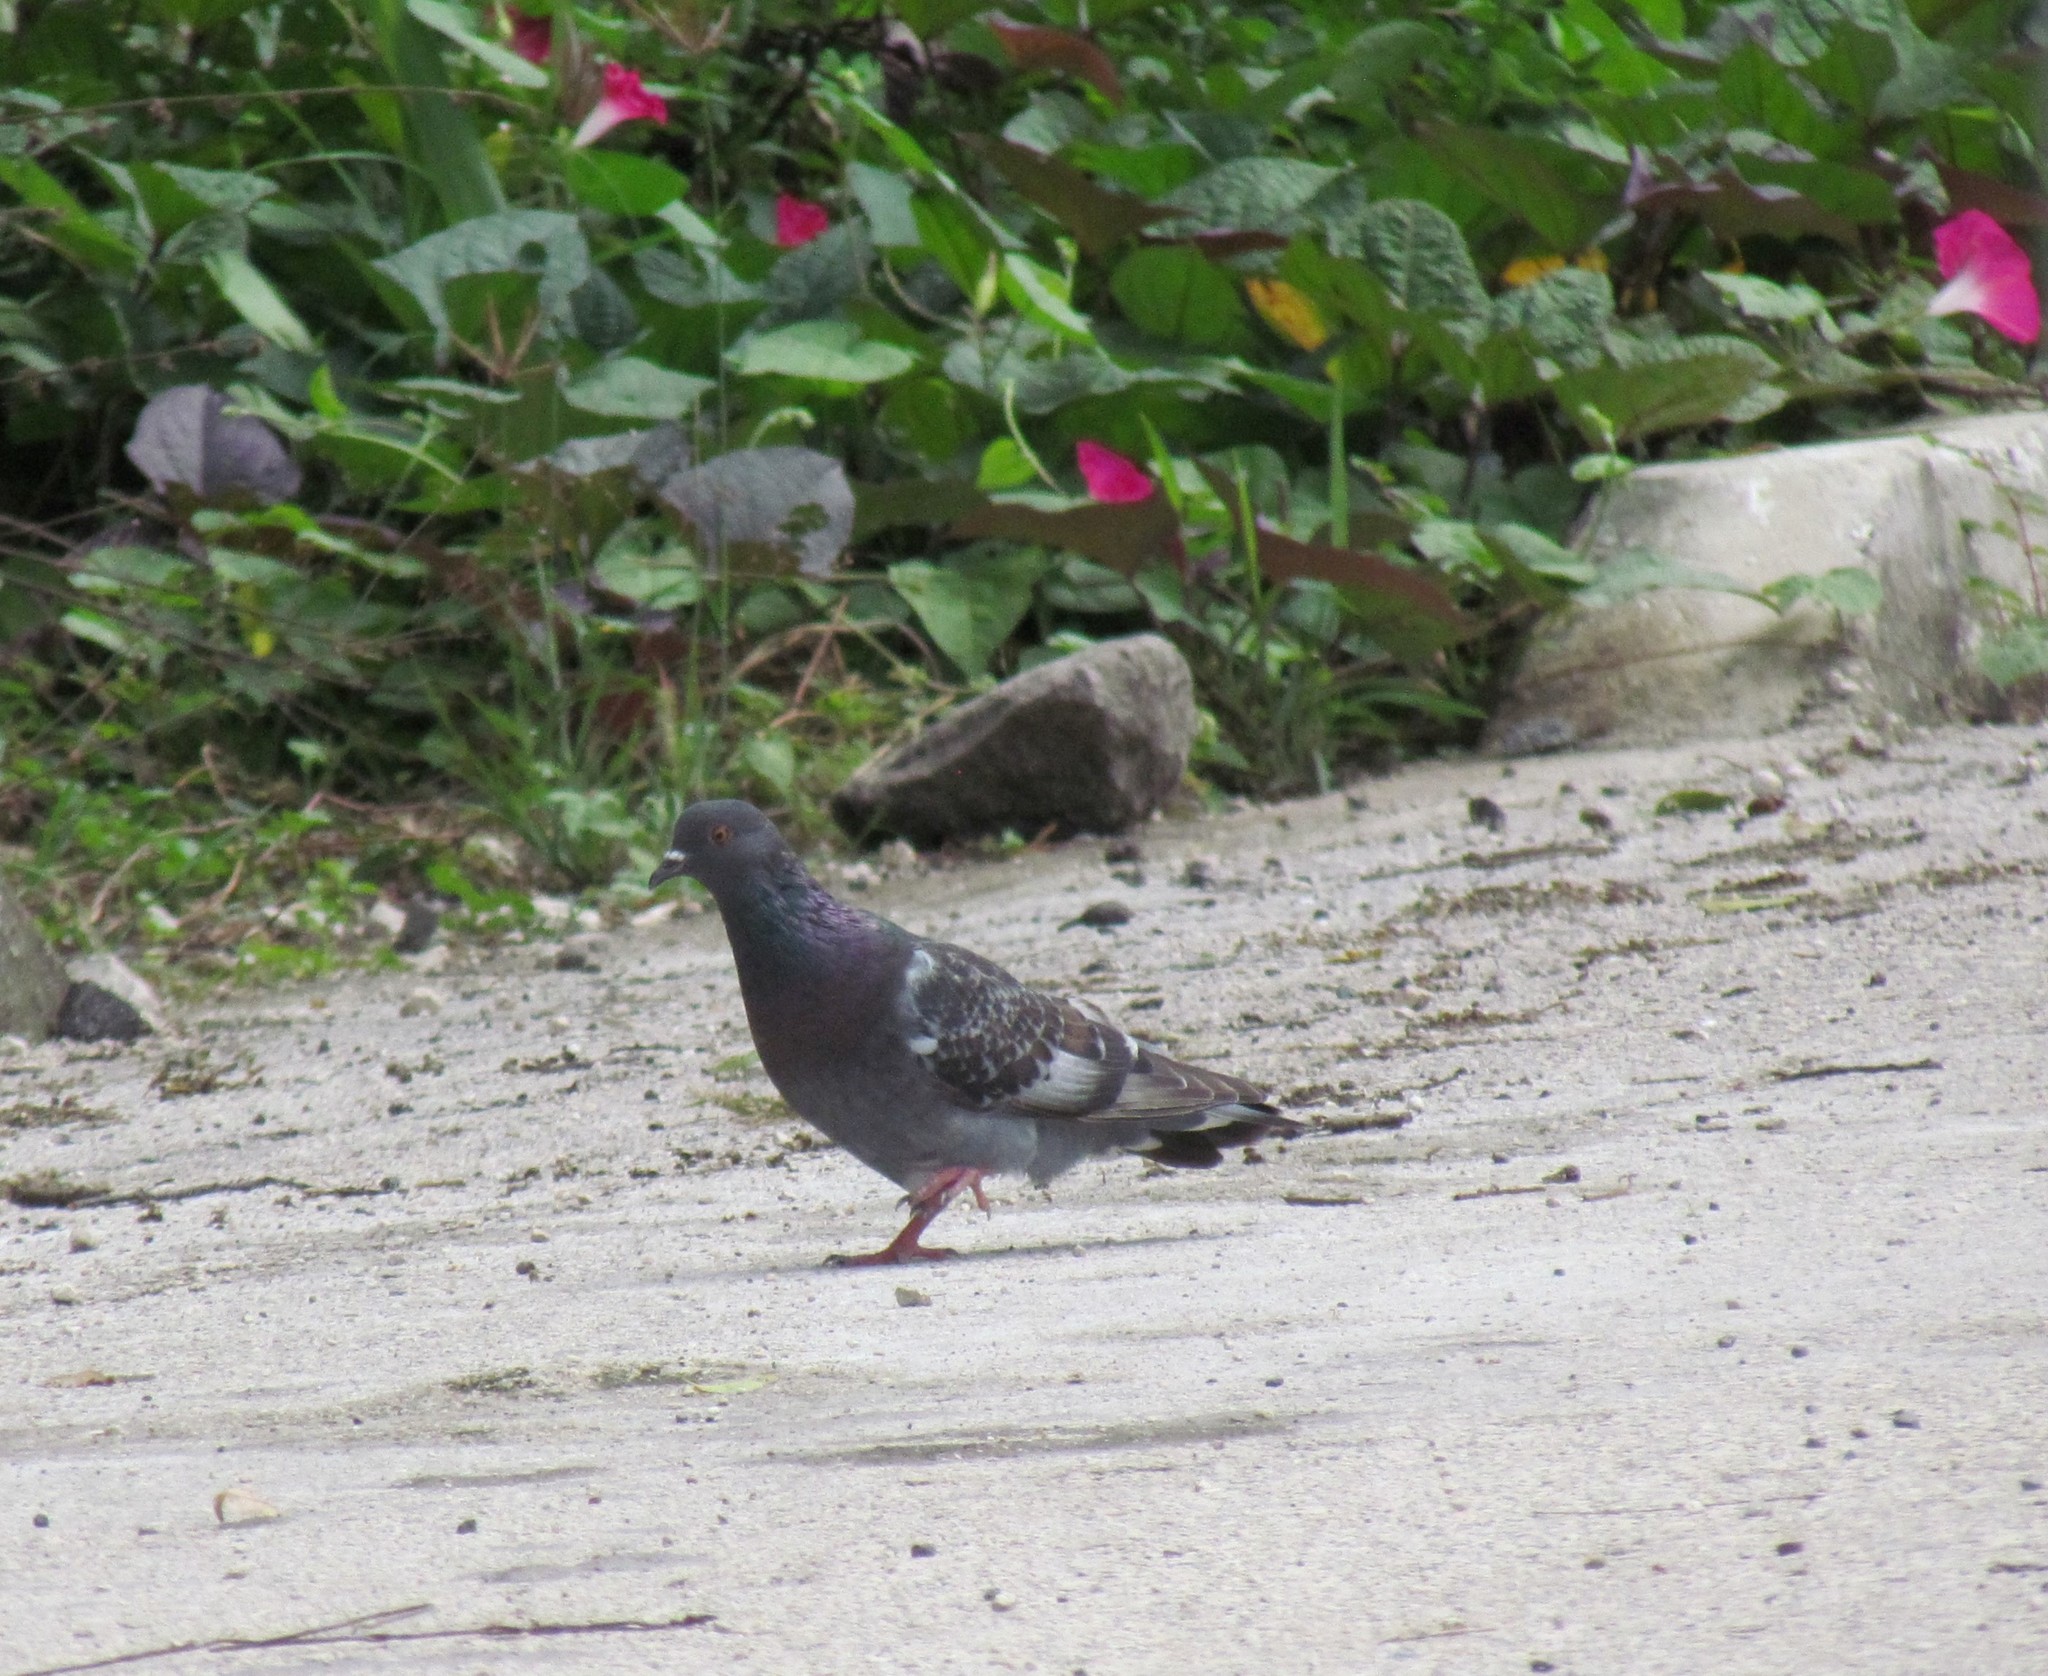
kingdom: Animalia
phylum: Chordata
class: Aves
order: Columbiformes
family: Columbidae
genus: Columba
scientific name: Columba livia
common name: Rock pigeon
